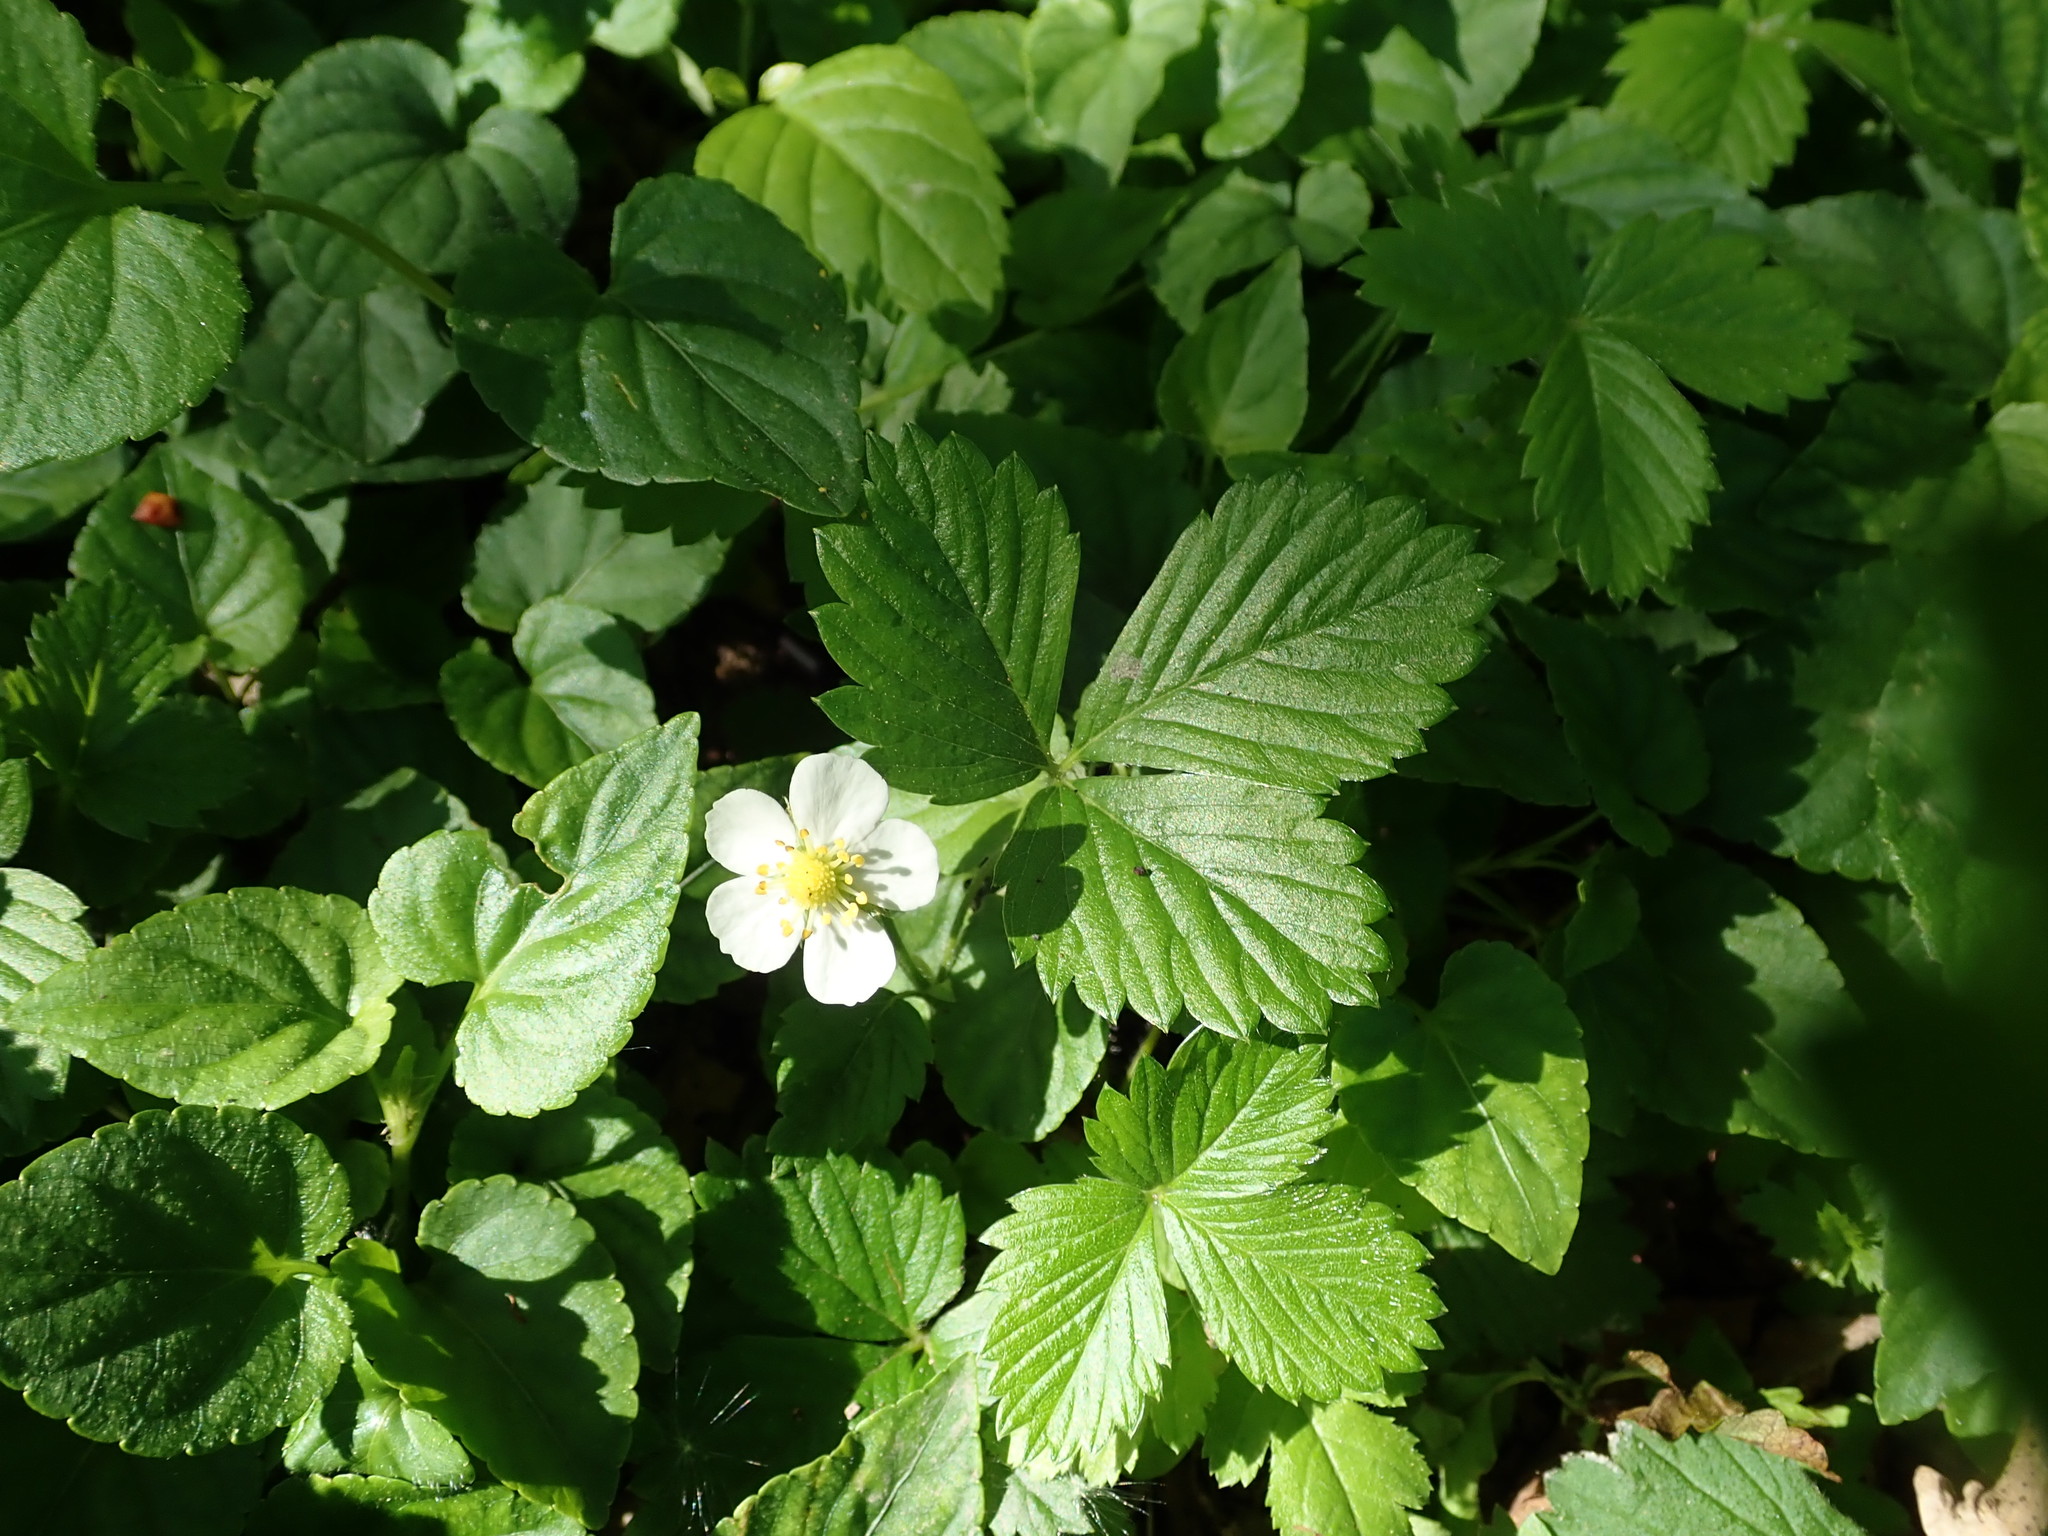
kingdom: Plantae
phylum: Tracheophyta
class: Magnoliopsida
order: Rosales
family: Rosaceae
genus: Fragaria
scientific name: Fragaria vesca
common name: Wild strawberry
